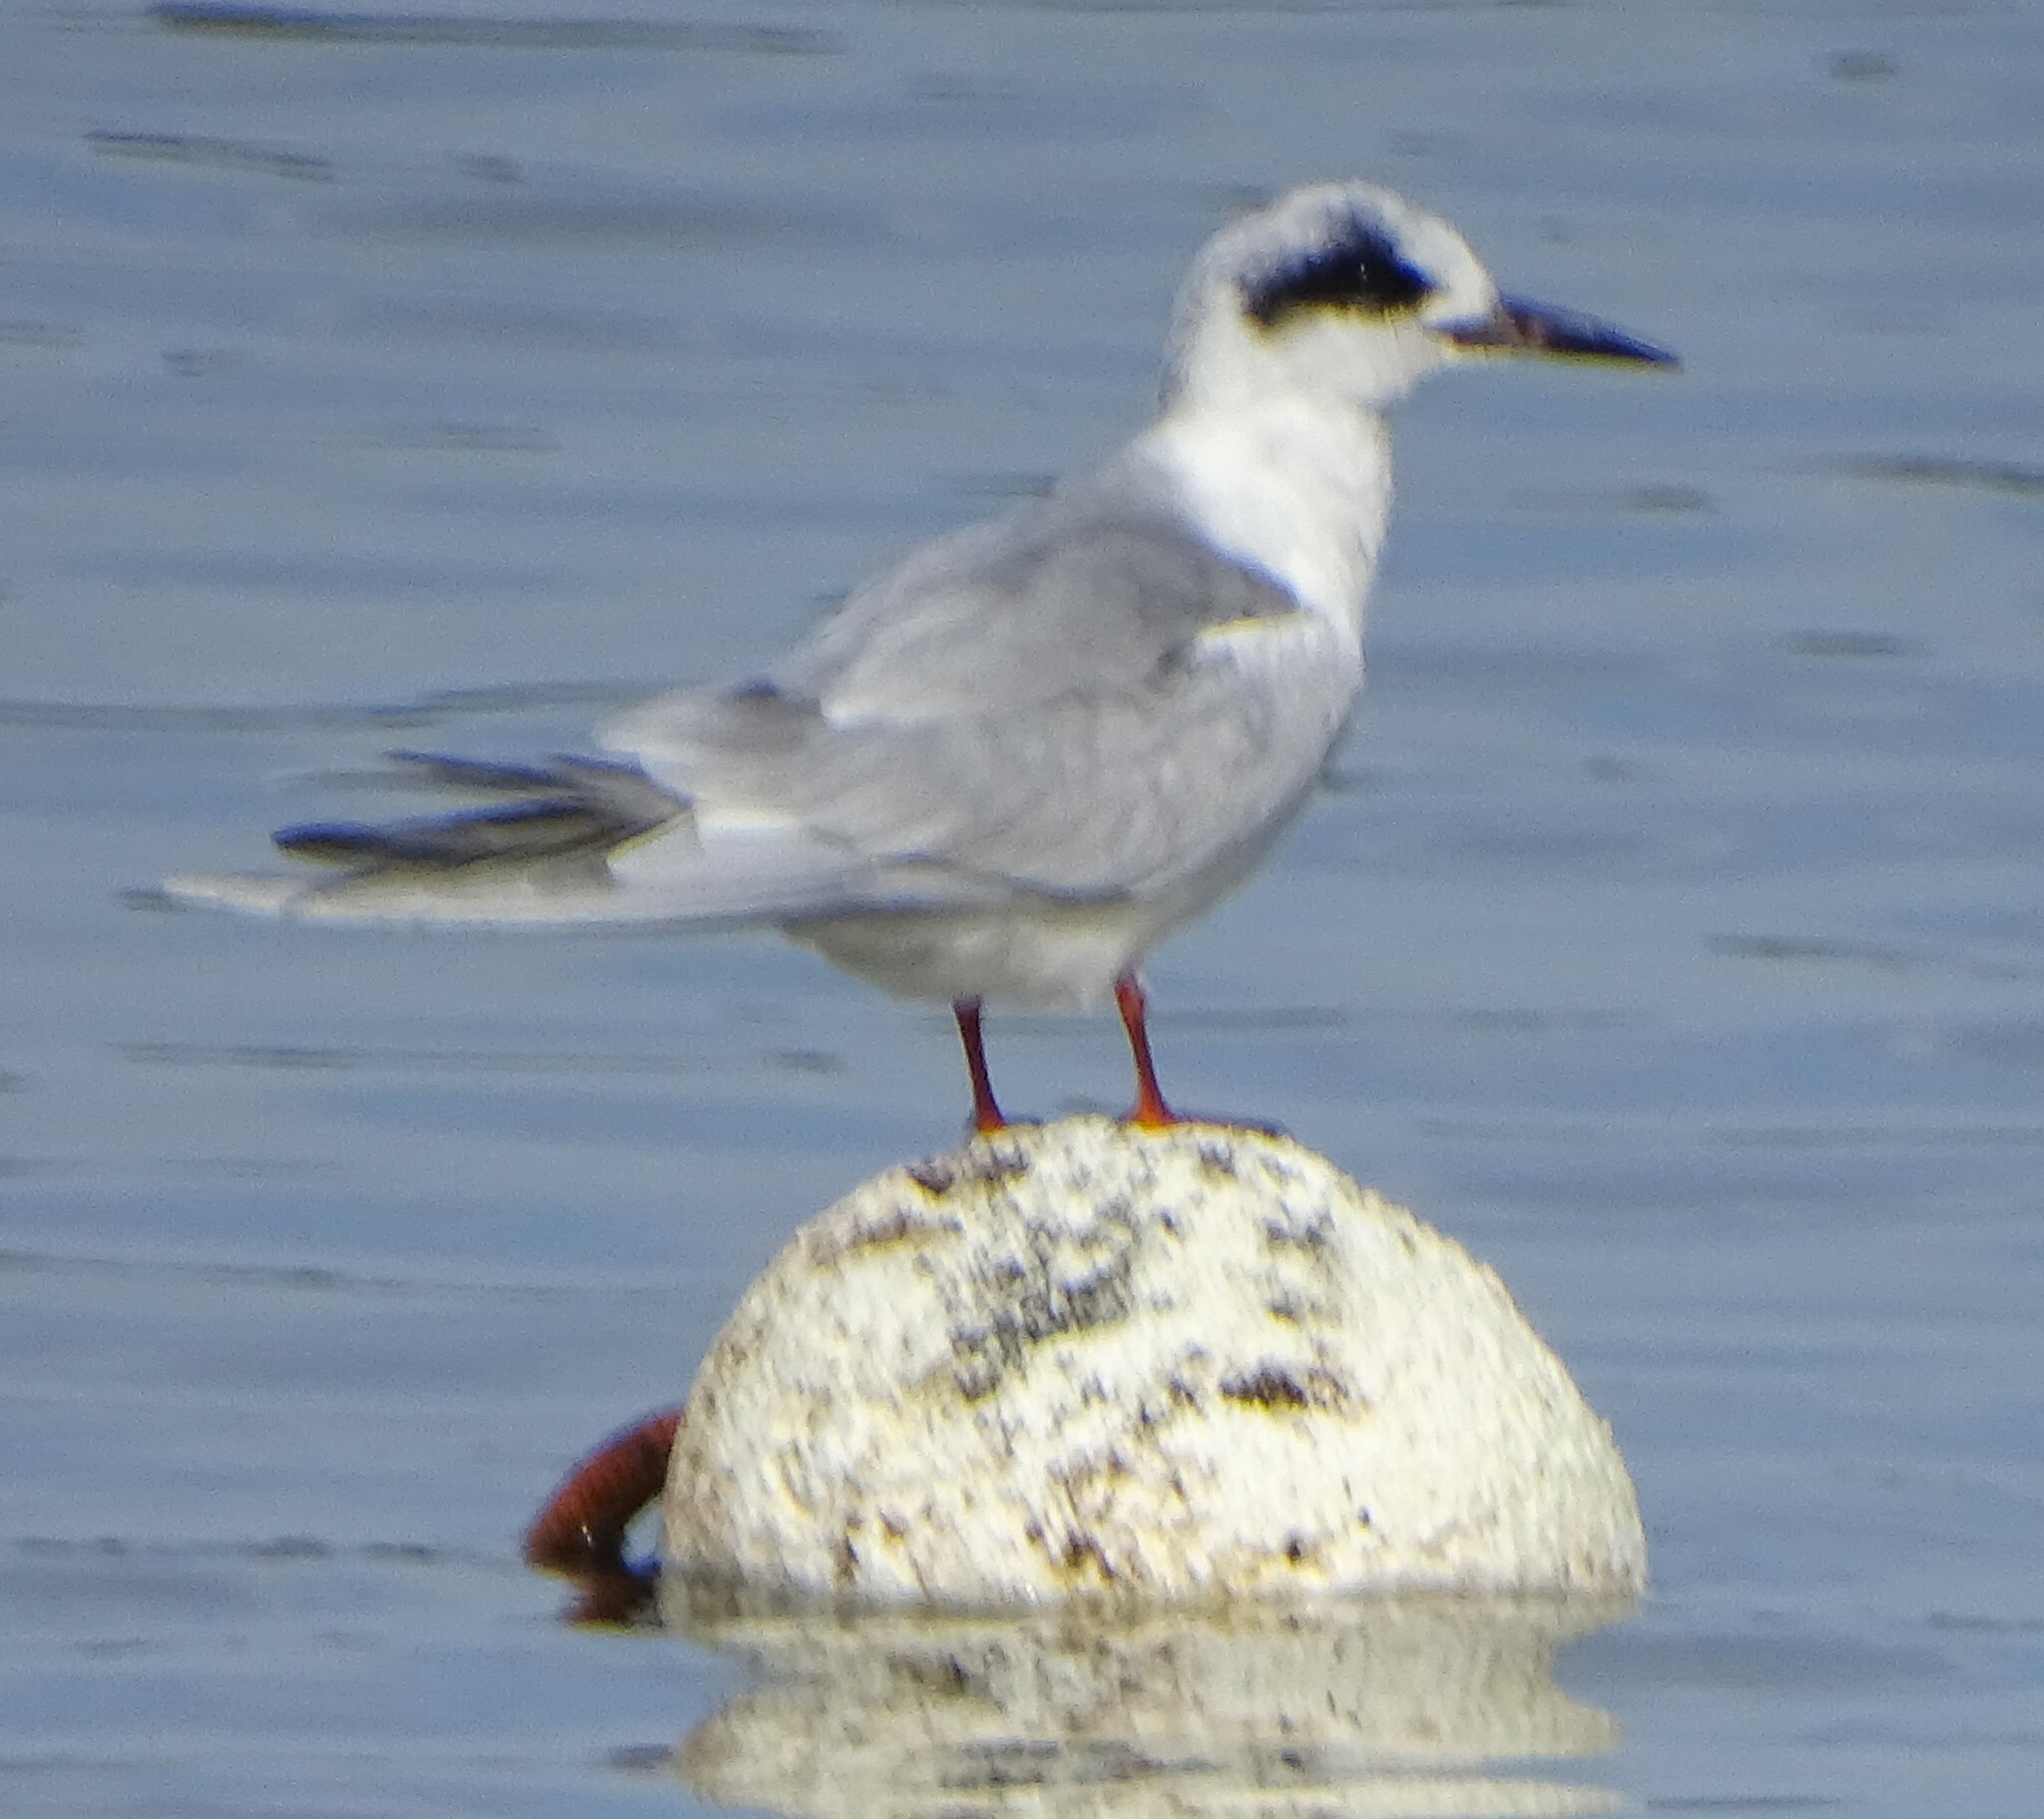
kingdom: Animalia
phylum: Chordata
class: Aves
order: Charadriiformes
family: Laridae
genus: Sterna
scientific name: Sterna forsteri
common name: Forster's tern
